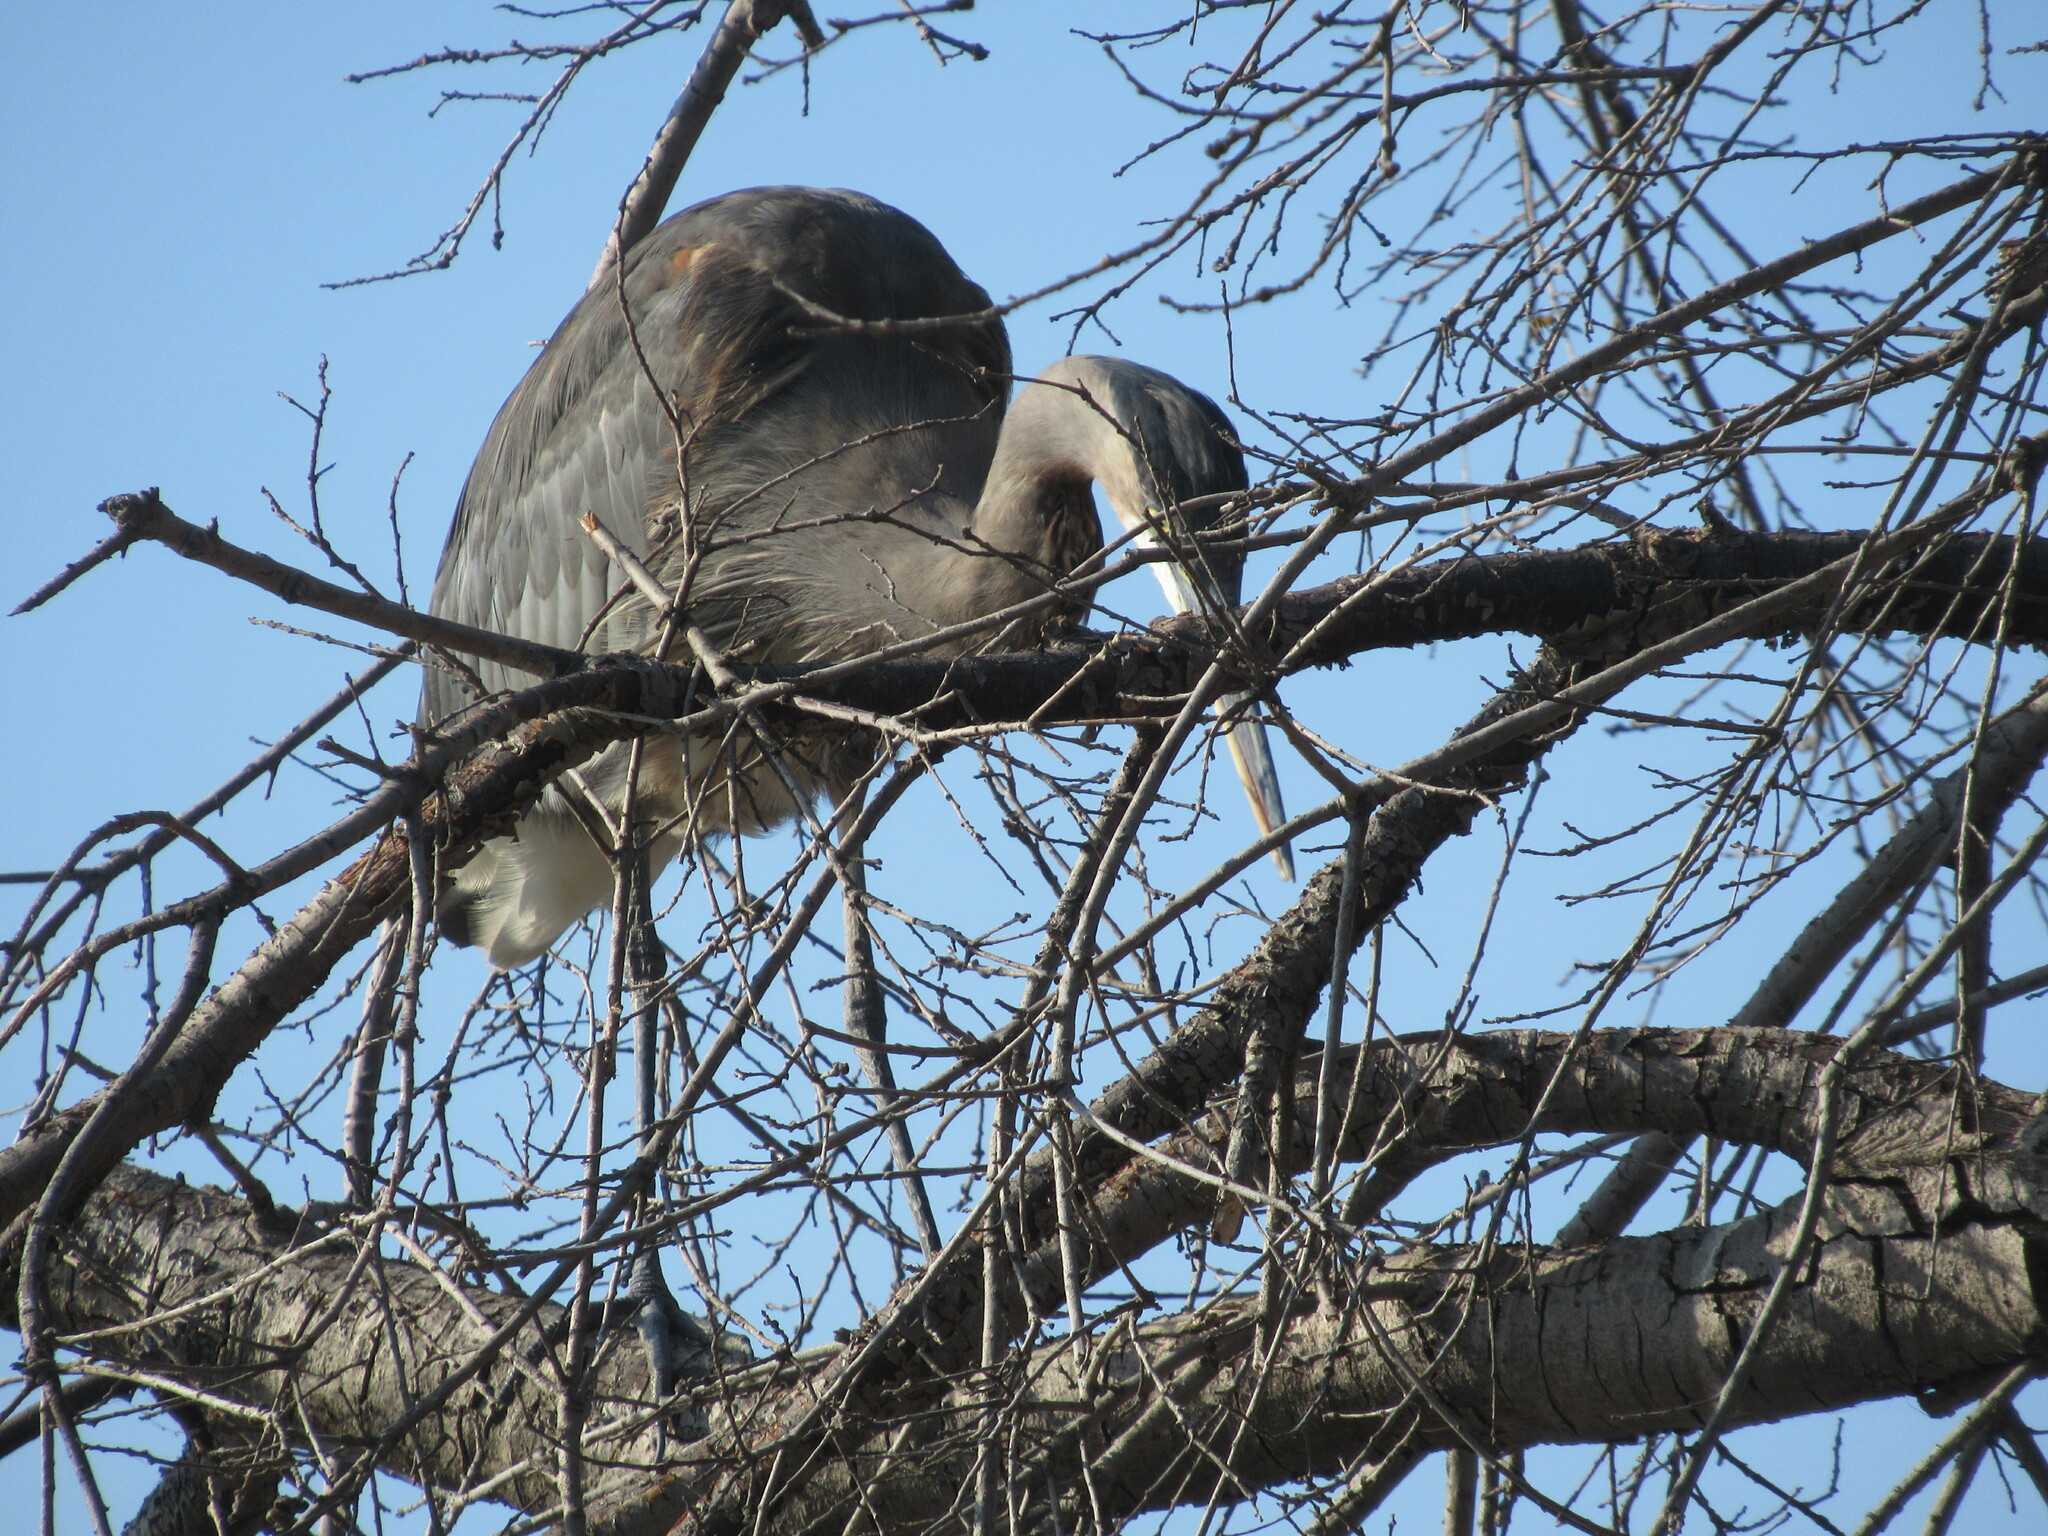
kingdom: Animalia
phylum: Chordata
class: Aves
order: Pelecaniformes
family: Ardeidae
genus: Ardea
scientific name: Ardea herodias
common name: Great blue heron
